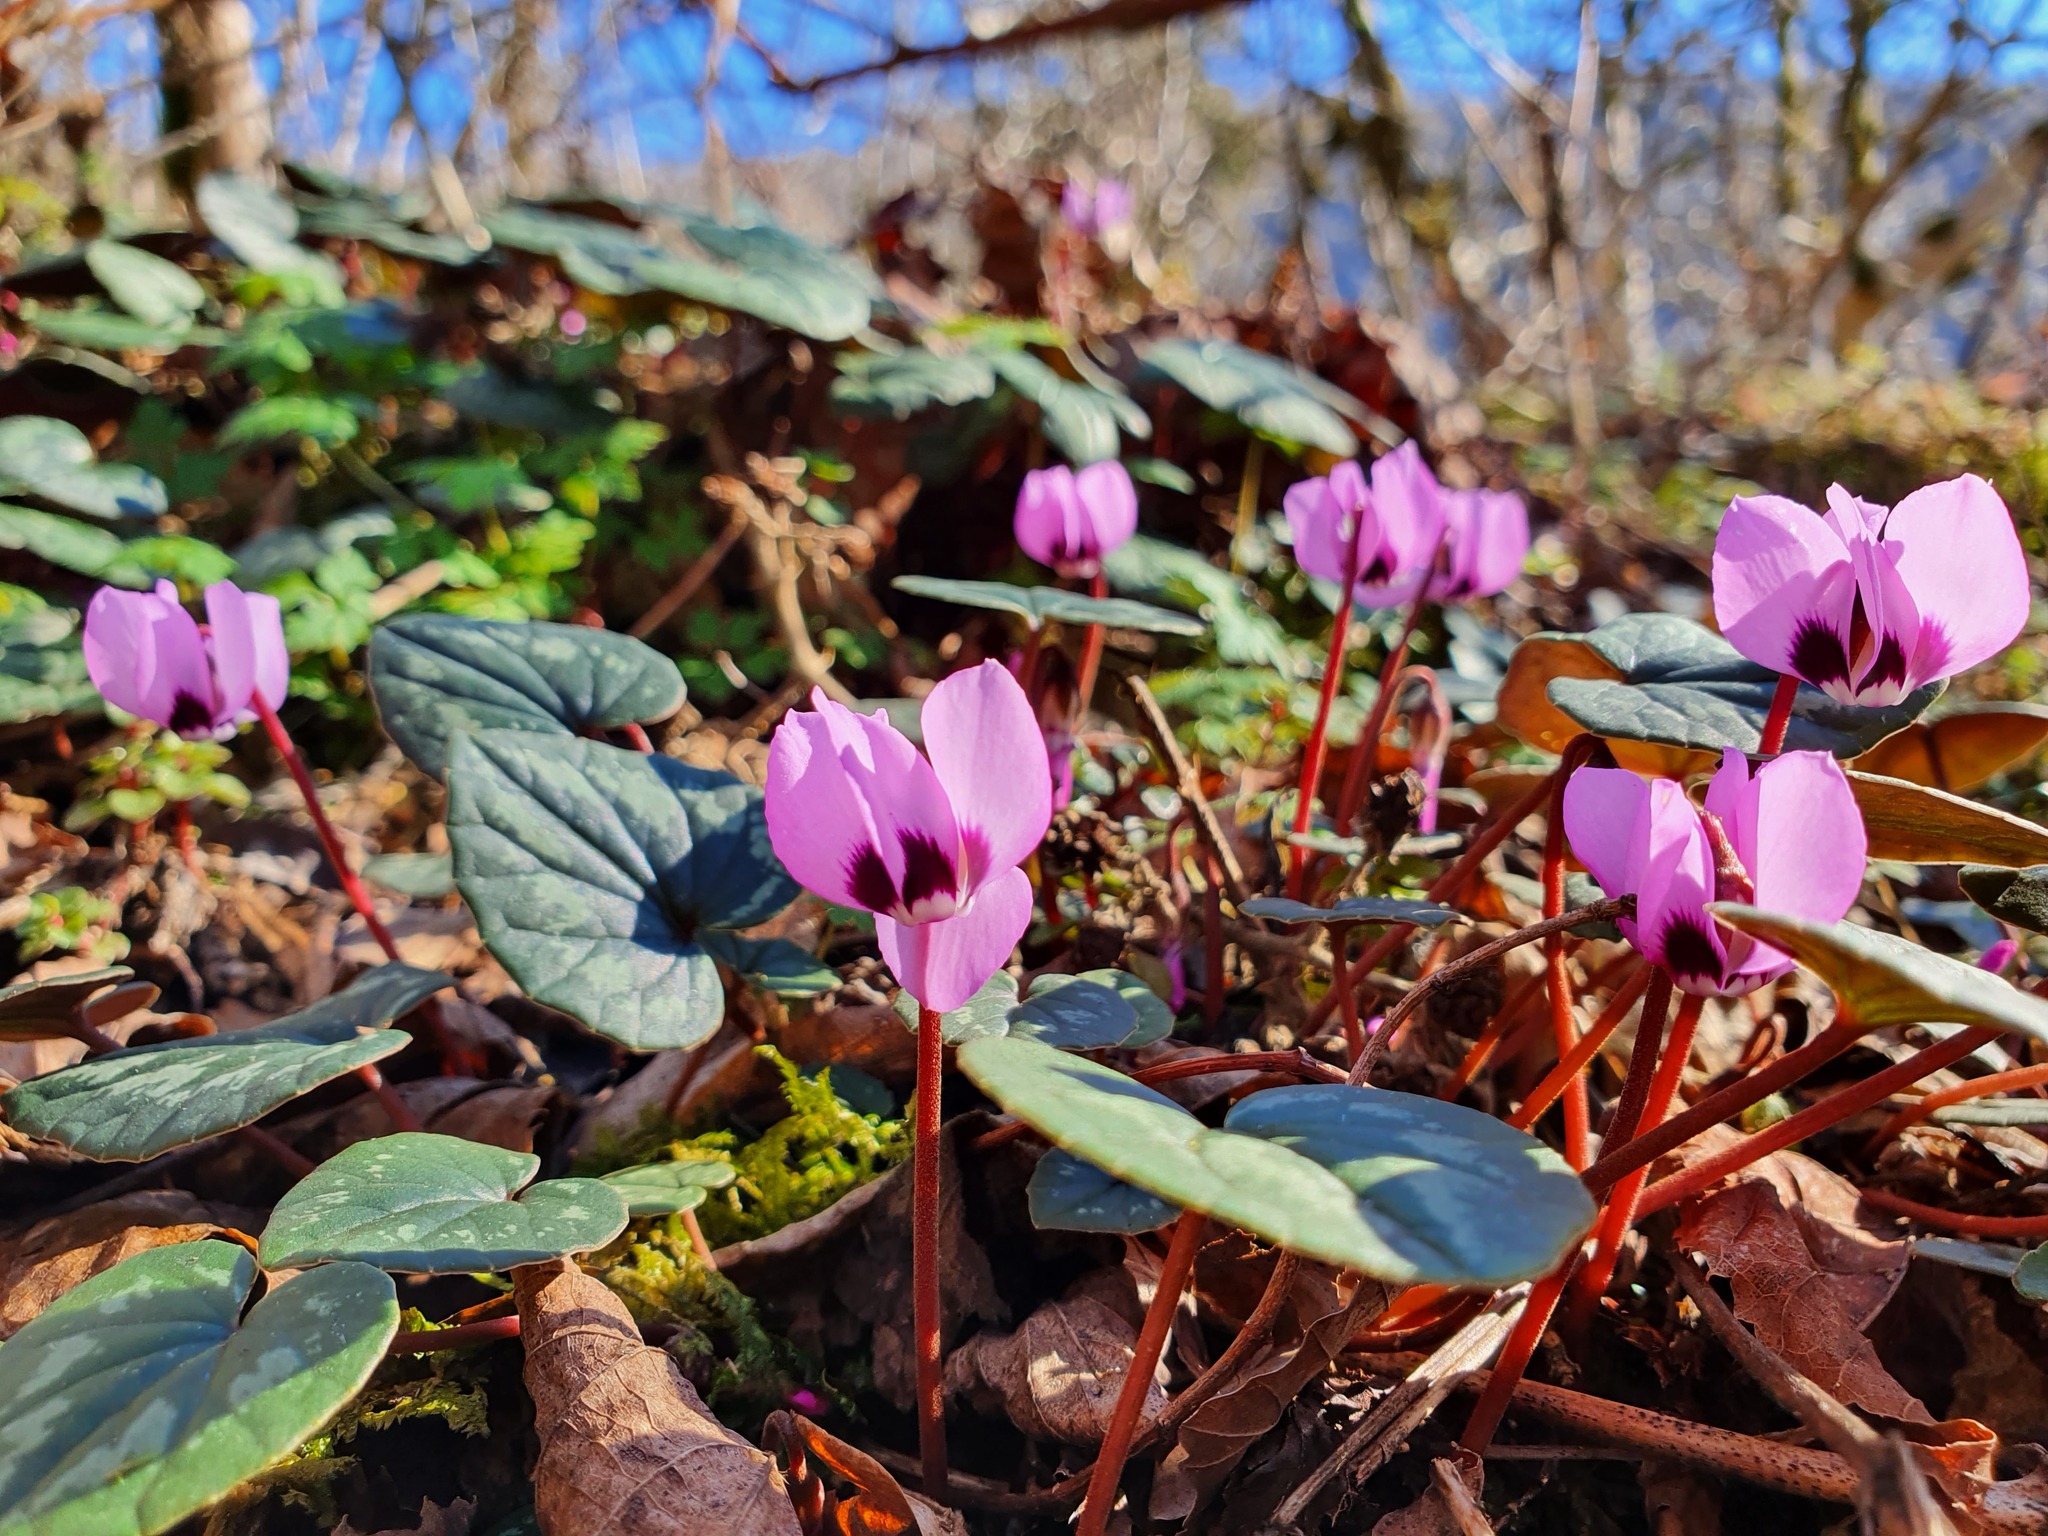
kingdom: Plantae
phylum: Tracheophyta
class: Magnoliopsida
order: Ericales
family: Primulaceae
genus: Cyclamen
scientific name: Cyclamen coum
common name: Eastern sowbread
